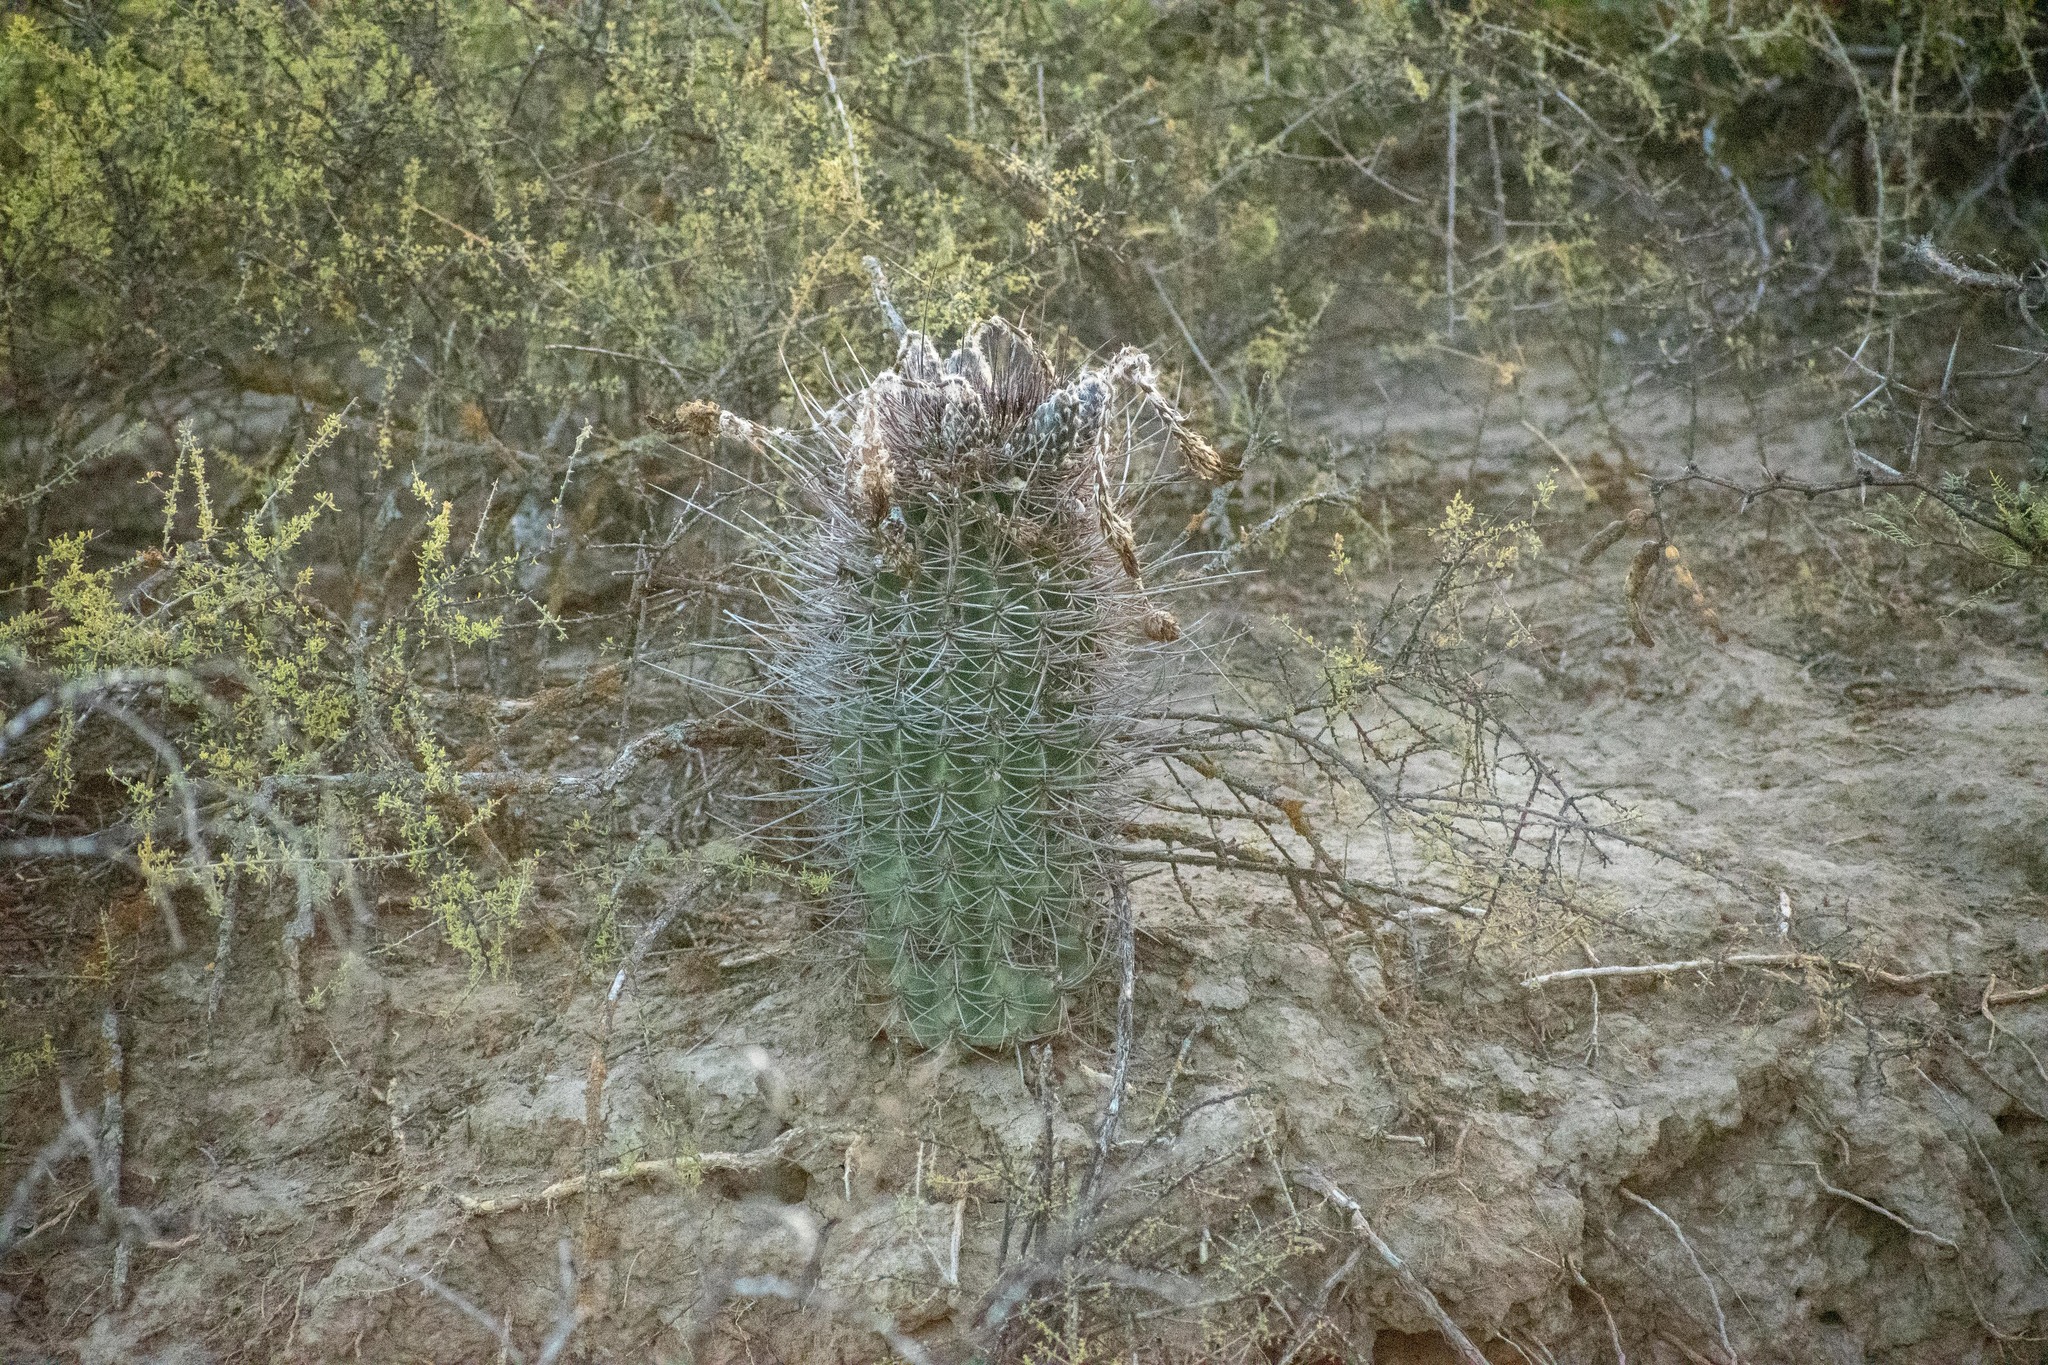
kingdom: Plantae
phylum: Tracheophyta
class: Magnoliopsida
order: Caryophyllales
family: Cactaceae
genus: Acanthocalycium
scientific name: Acanthocalycium leucanthum
